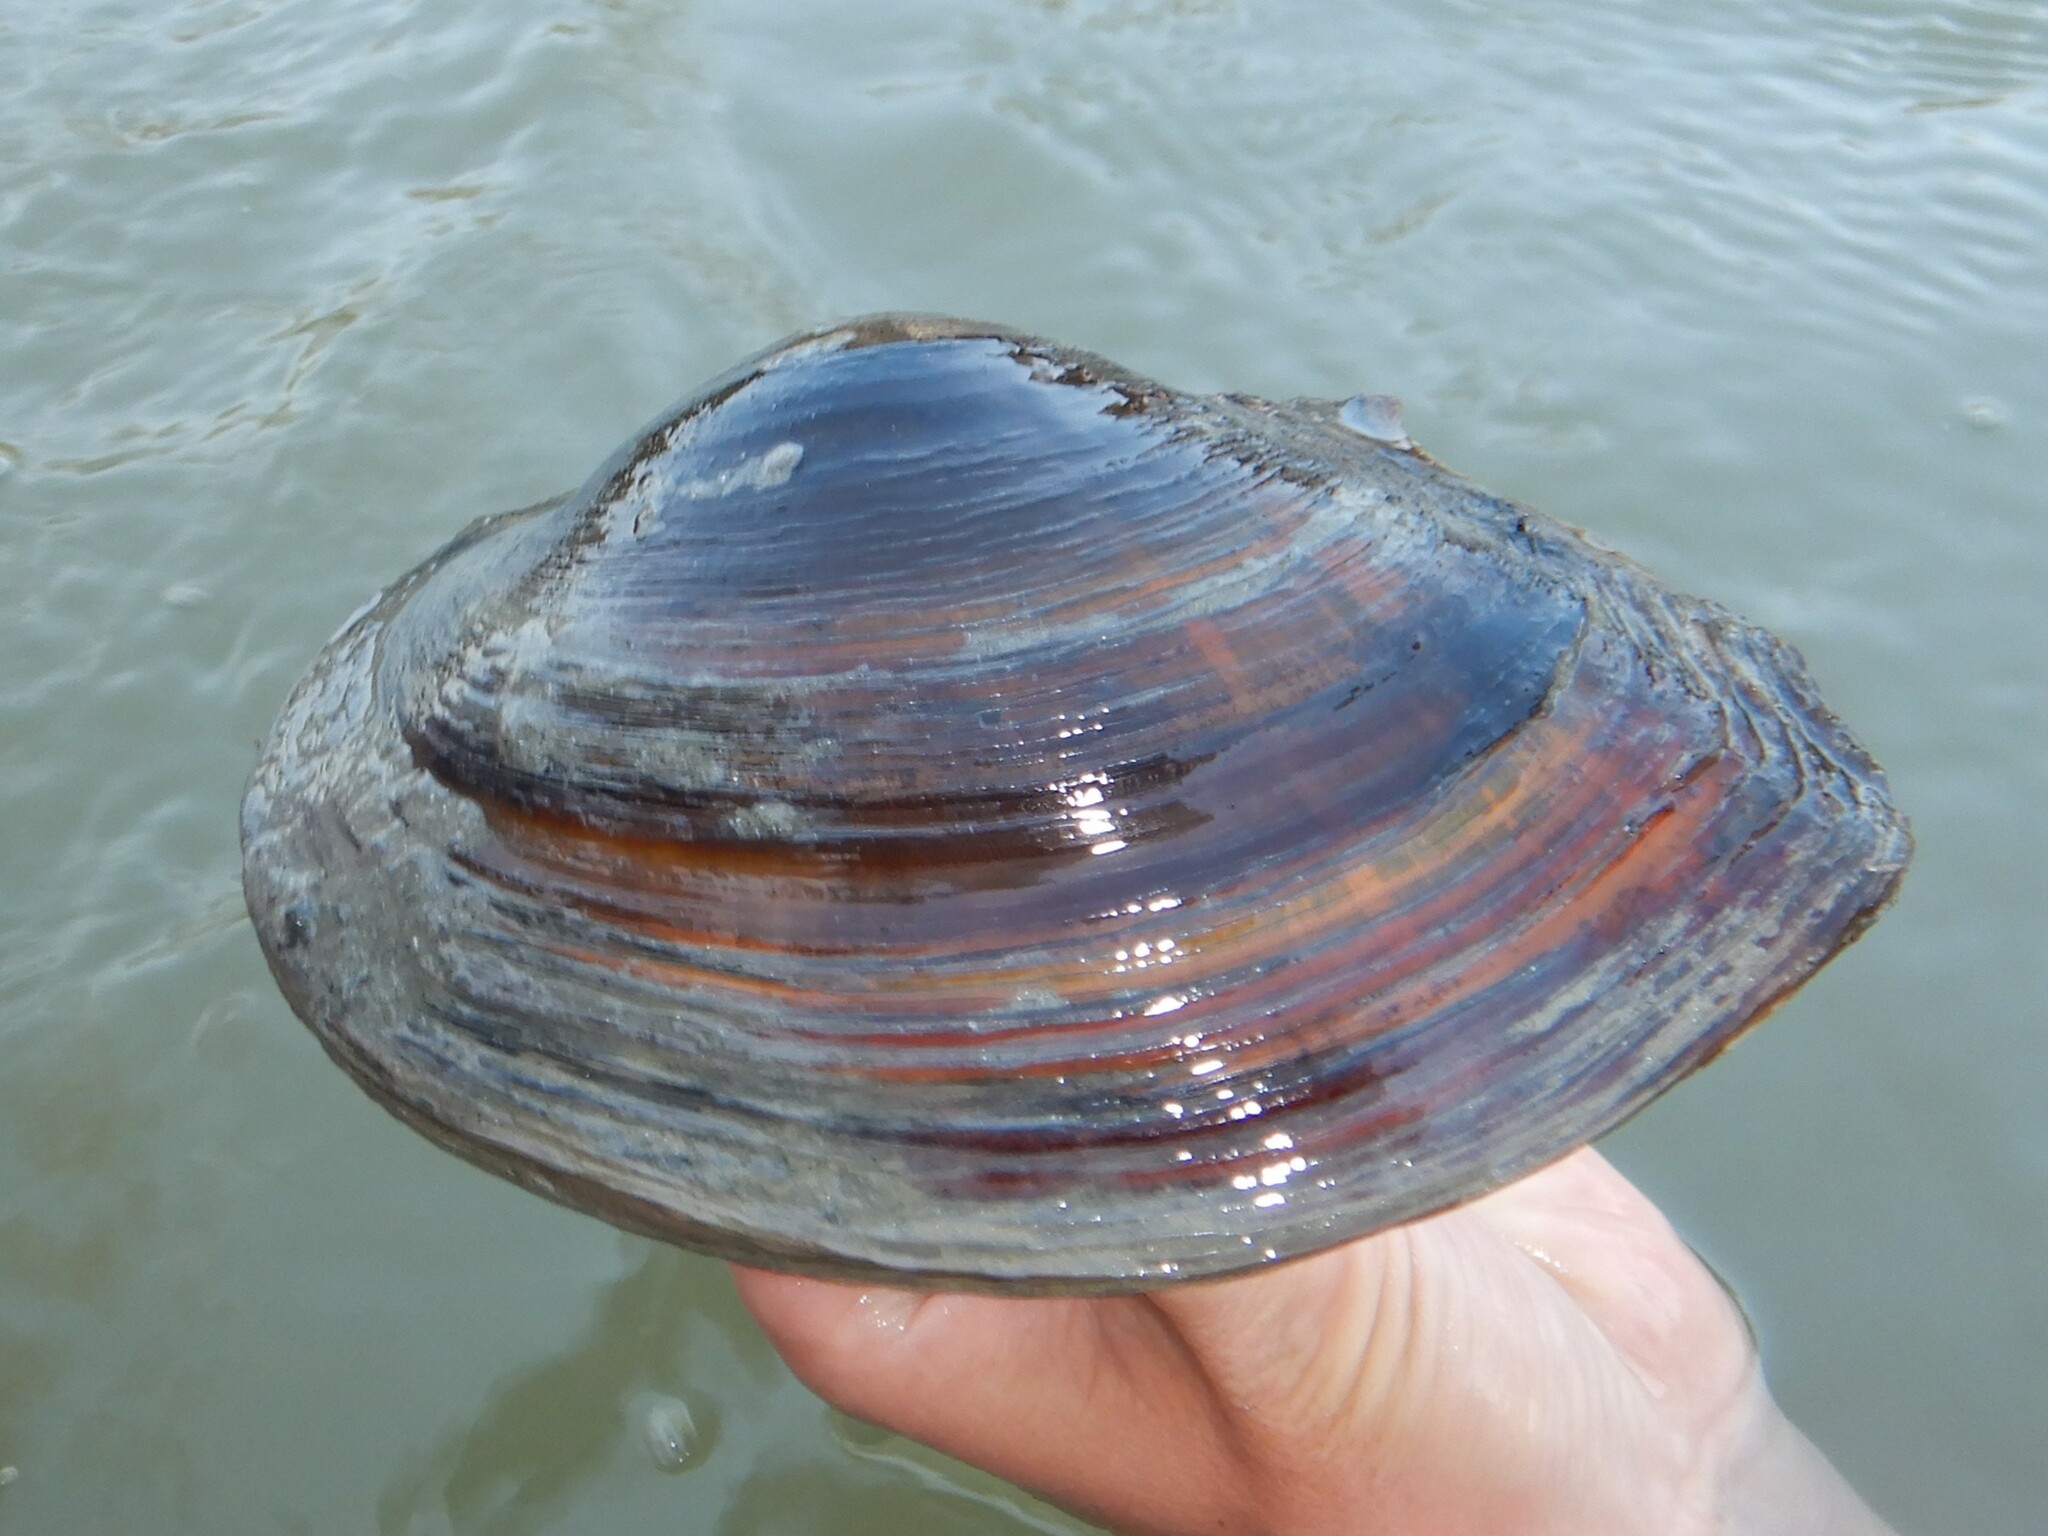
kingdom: Animalia
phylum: Mollusca
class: Bivalvia
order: Unionida
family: Unionidae
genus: Sinanodonta
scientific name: Sinanodonta woodiana
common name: Chinese pond mussel
